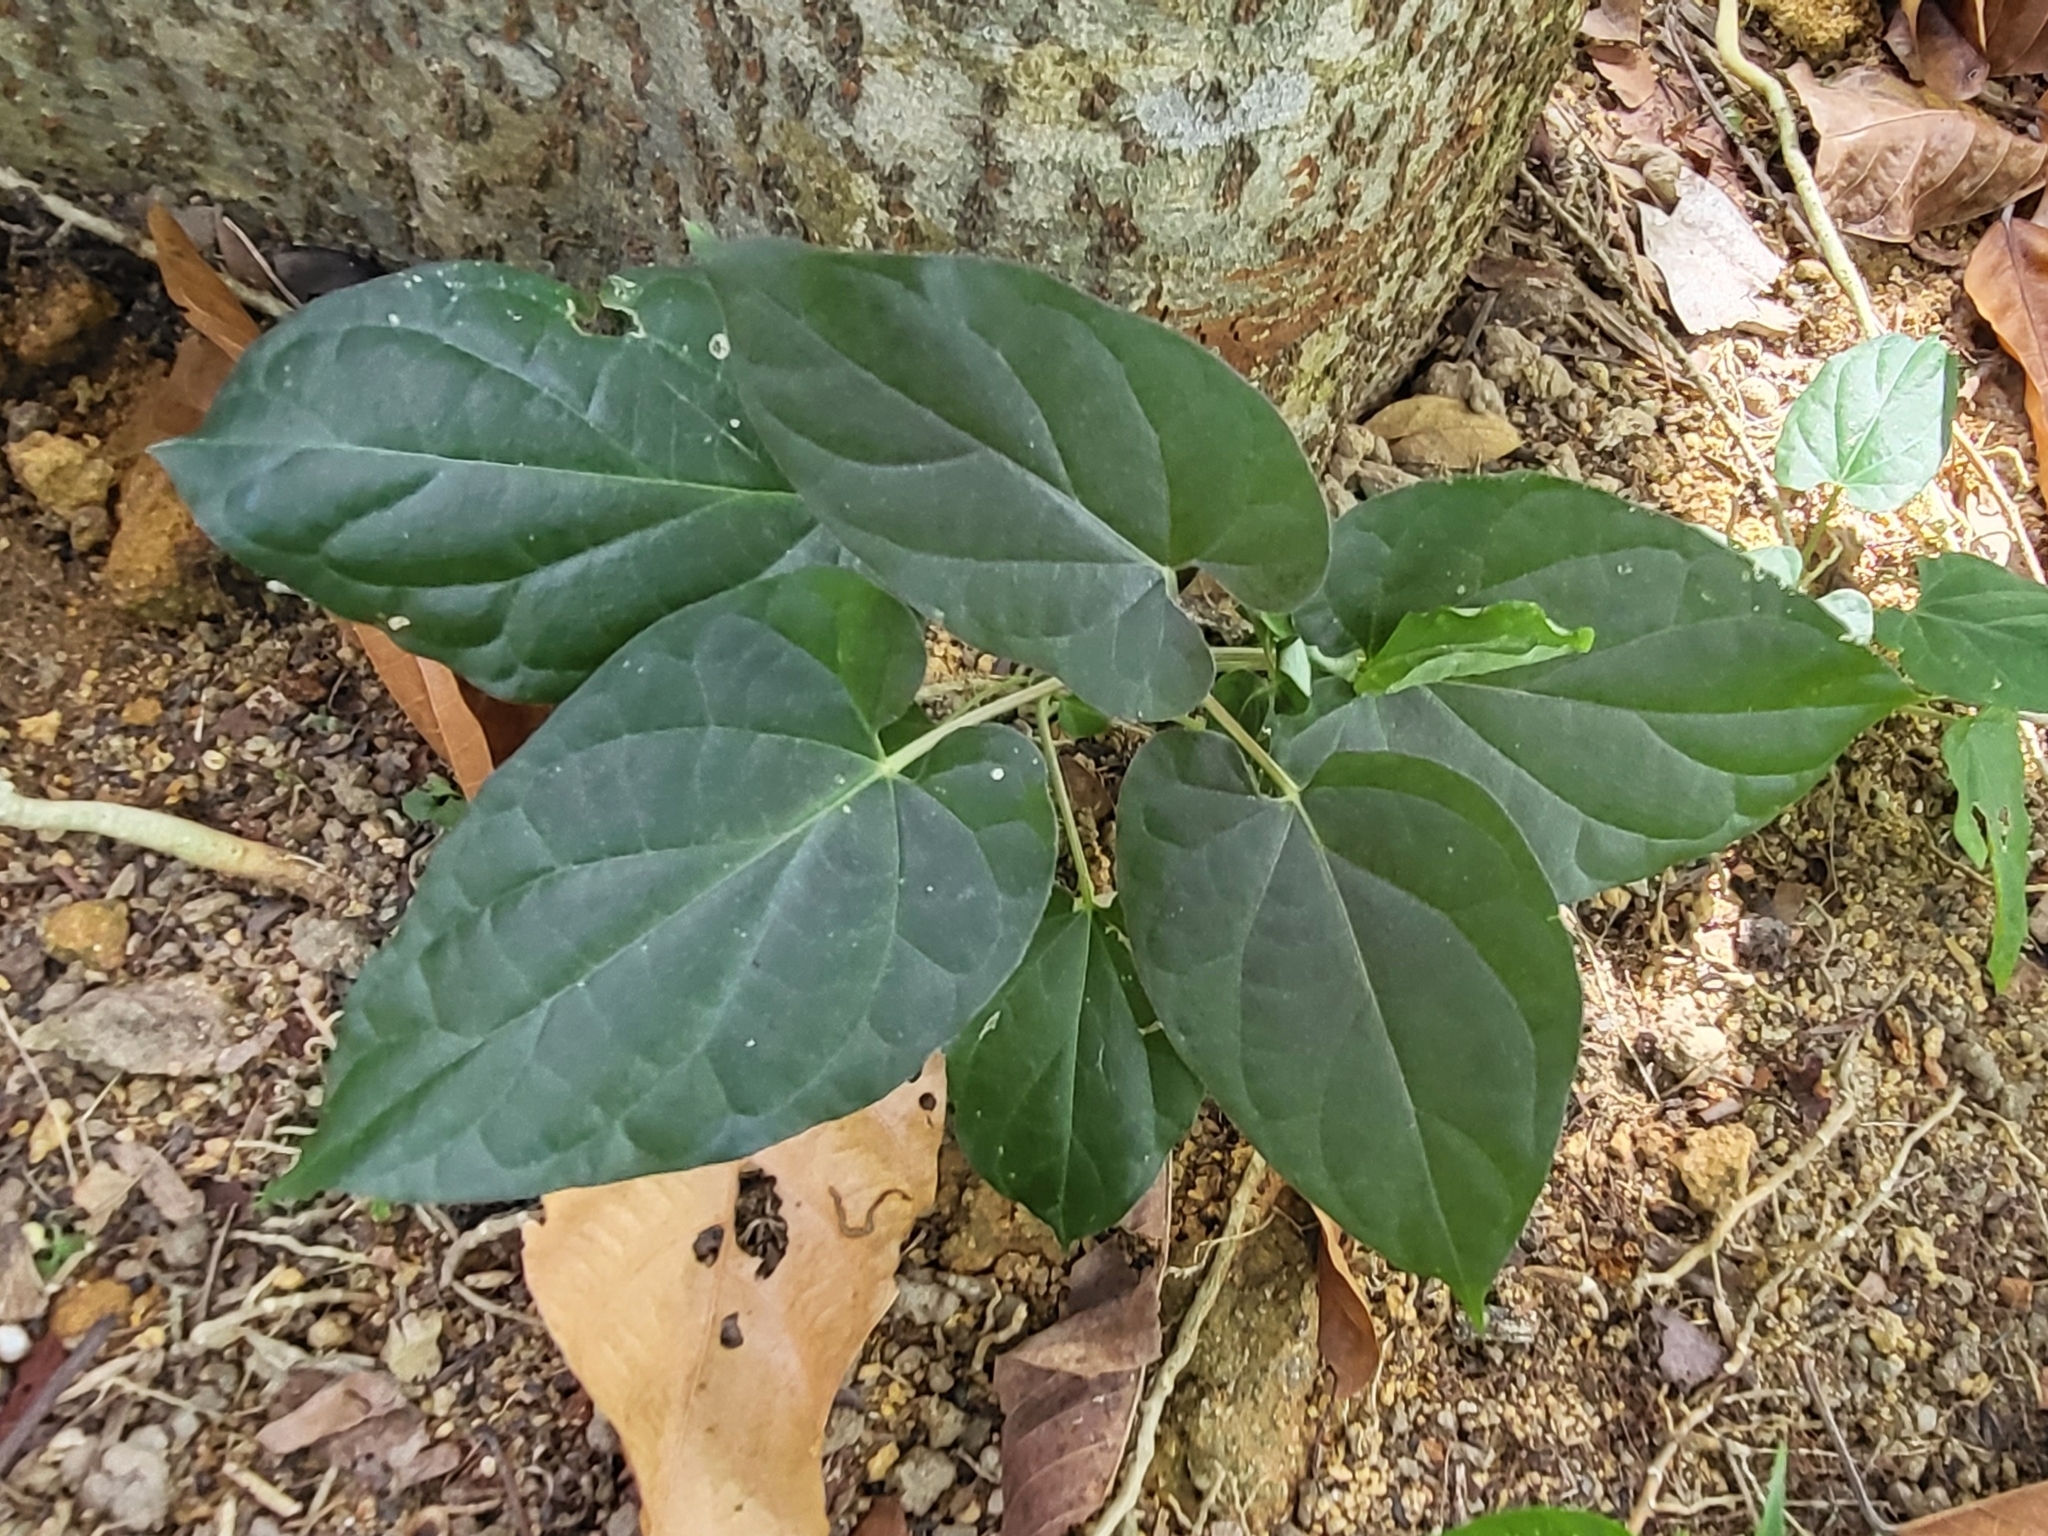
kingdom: Plantae
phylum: Tracheophyta
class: Magnoliopsida
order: Gentianales
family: Apocynaceae
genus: Cynanchum
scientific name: Cynanchum pulchellum
